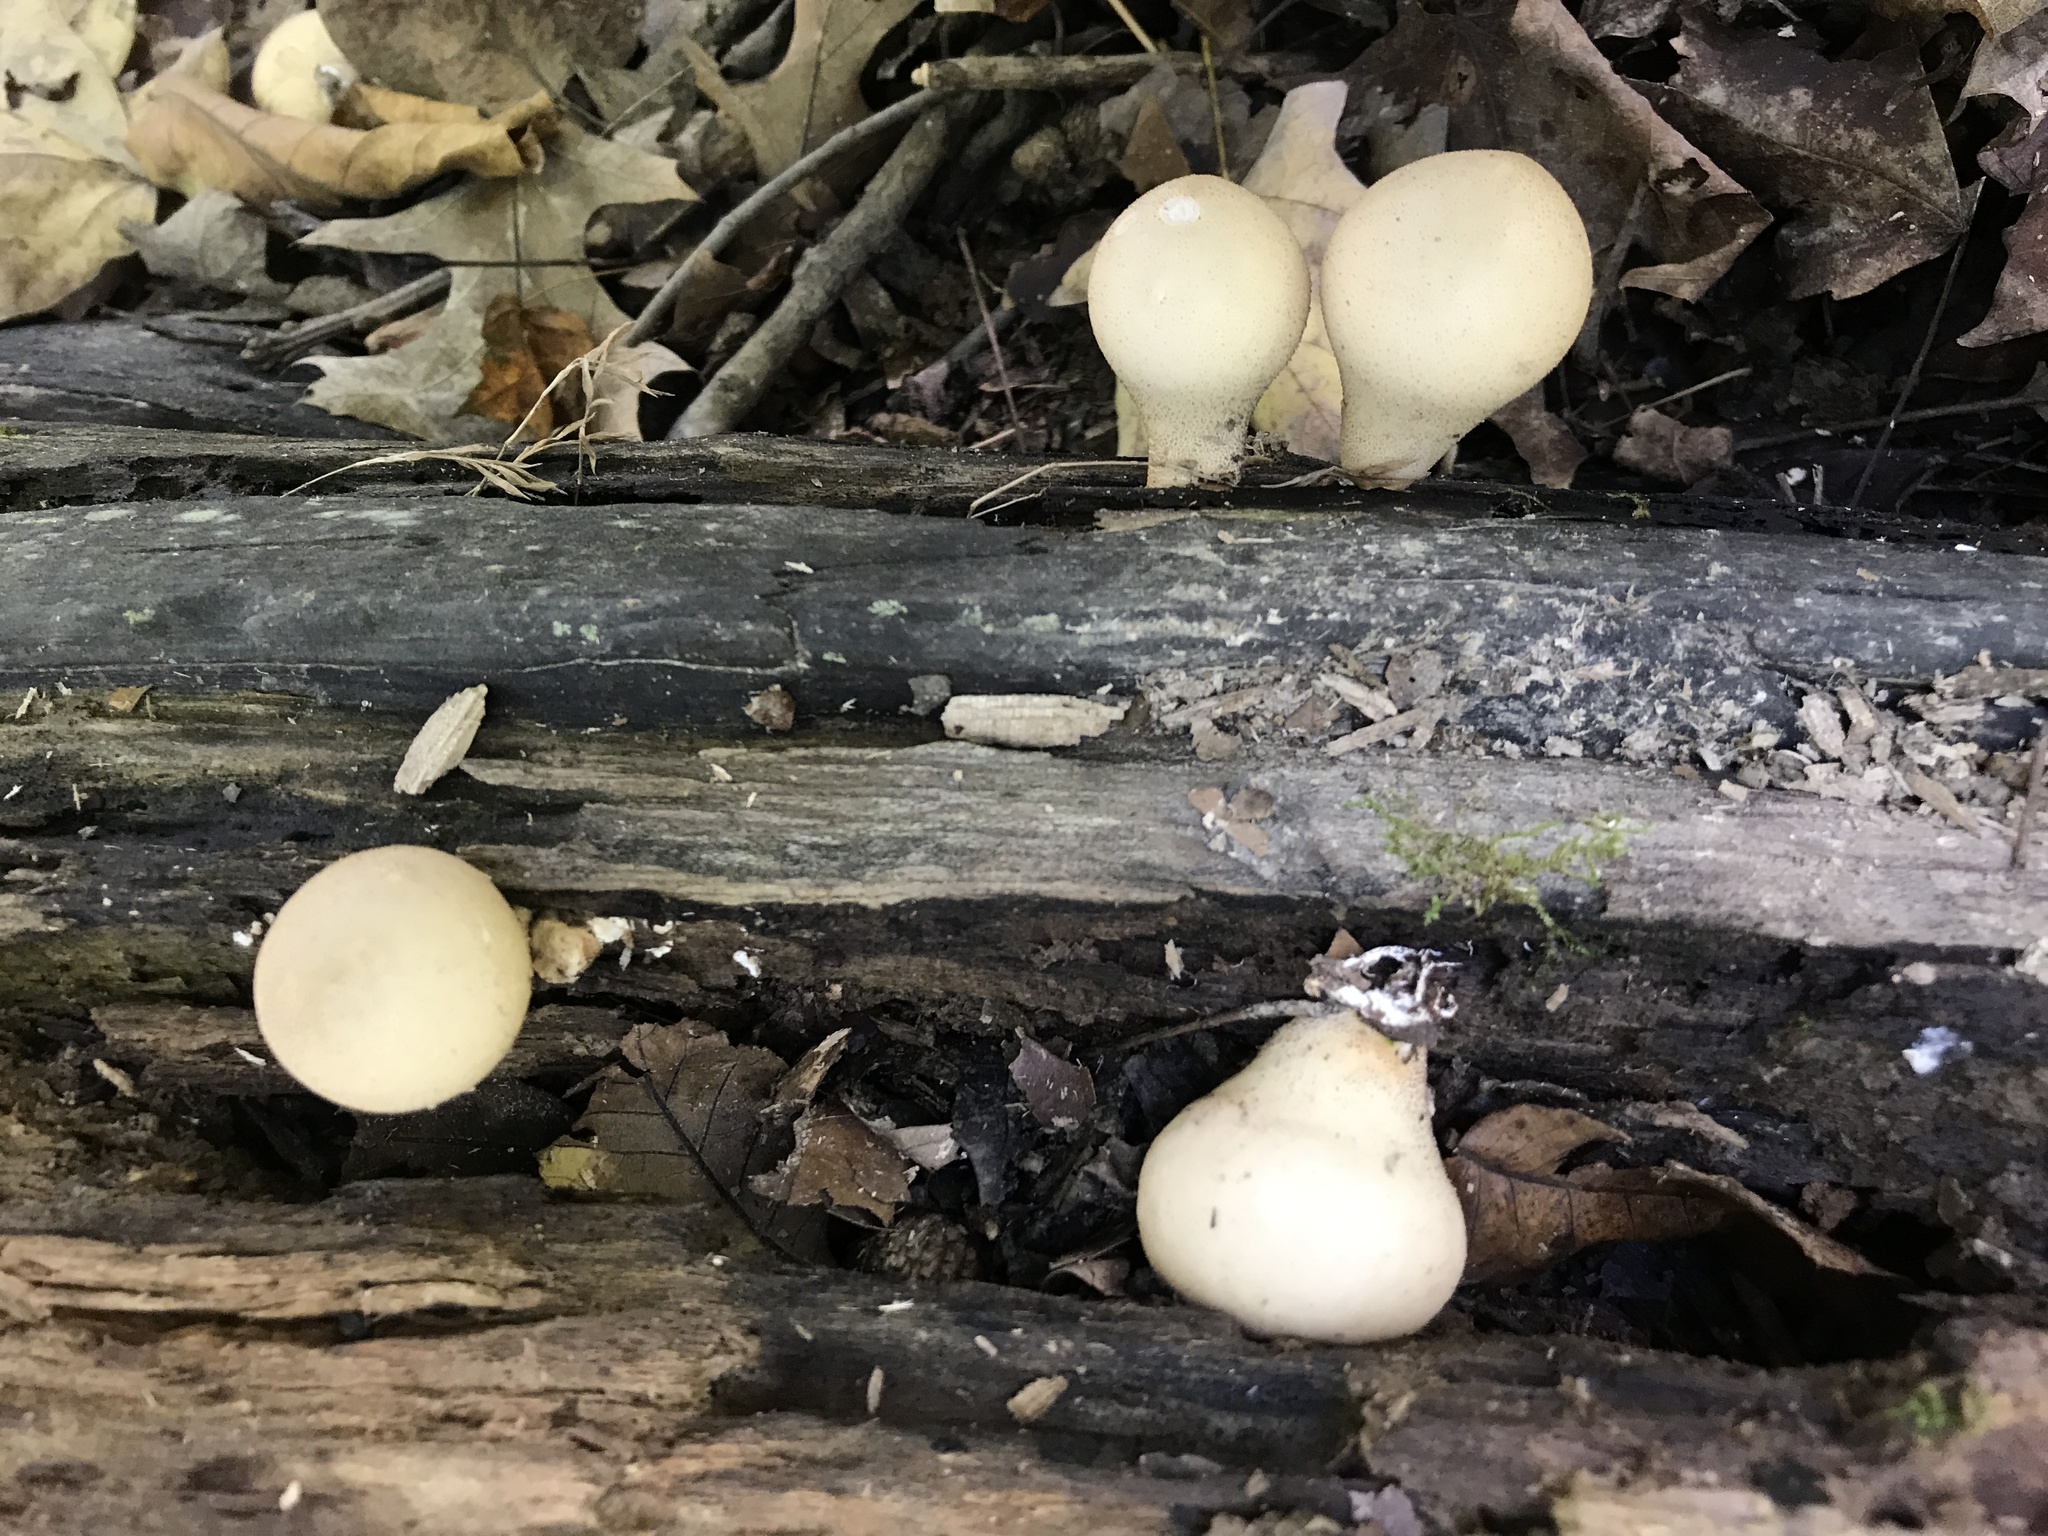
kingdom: Fungi
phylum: Basidiomycota
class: Agaricomycetes
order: Agaricales
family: Lycoperdaceae
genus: Apioperdon
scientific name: Apioperdon pyriforme
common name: Pear-shaped puffball
